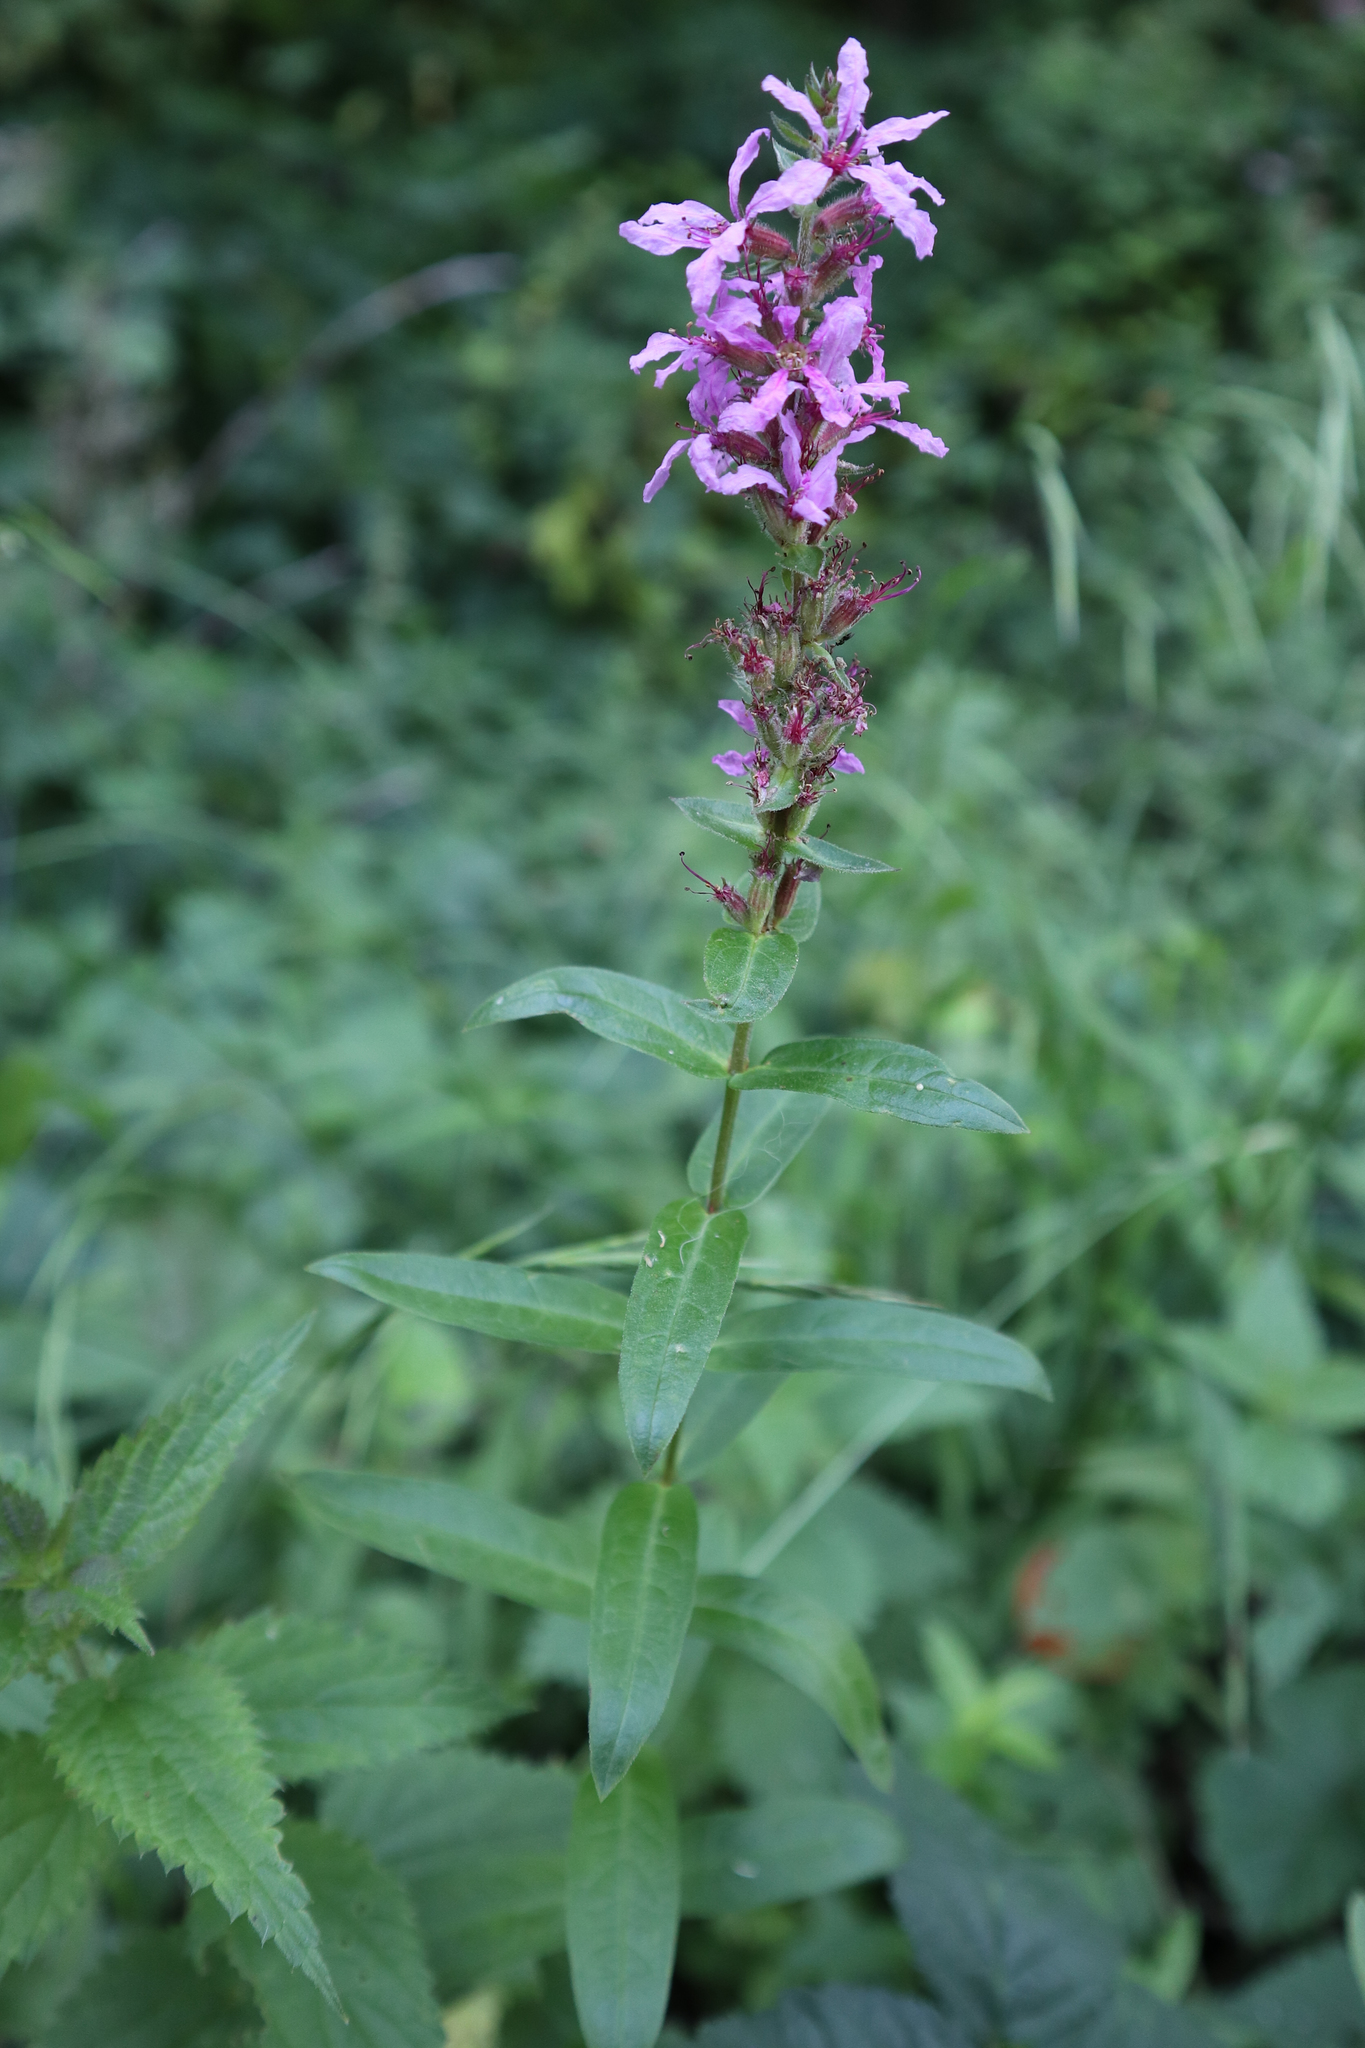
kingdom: Plantae
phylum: Tracheophyta
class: Magnoliopsida
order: Myrtales
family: Lythraceae
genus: Lythrum
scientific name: Lythrum salicaria
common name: Purple loosestrife
